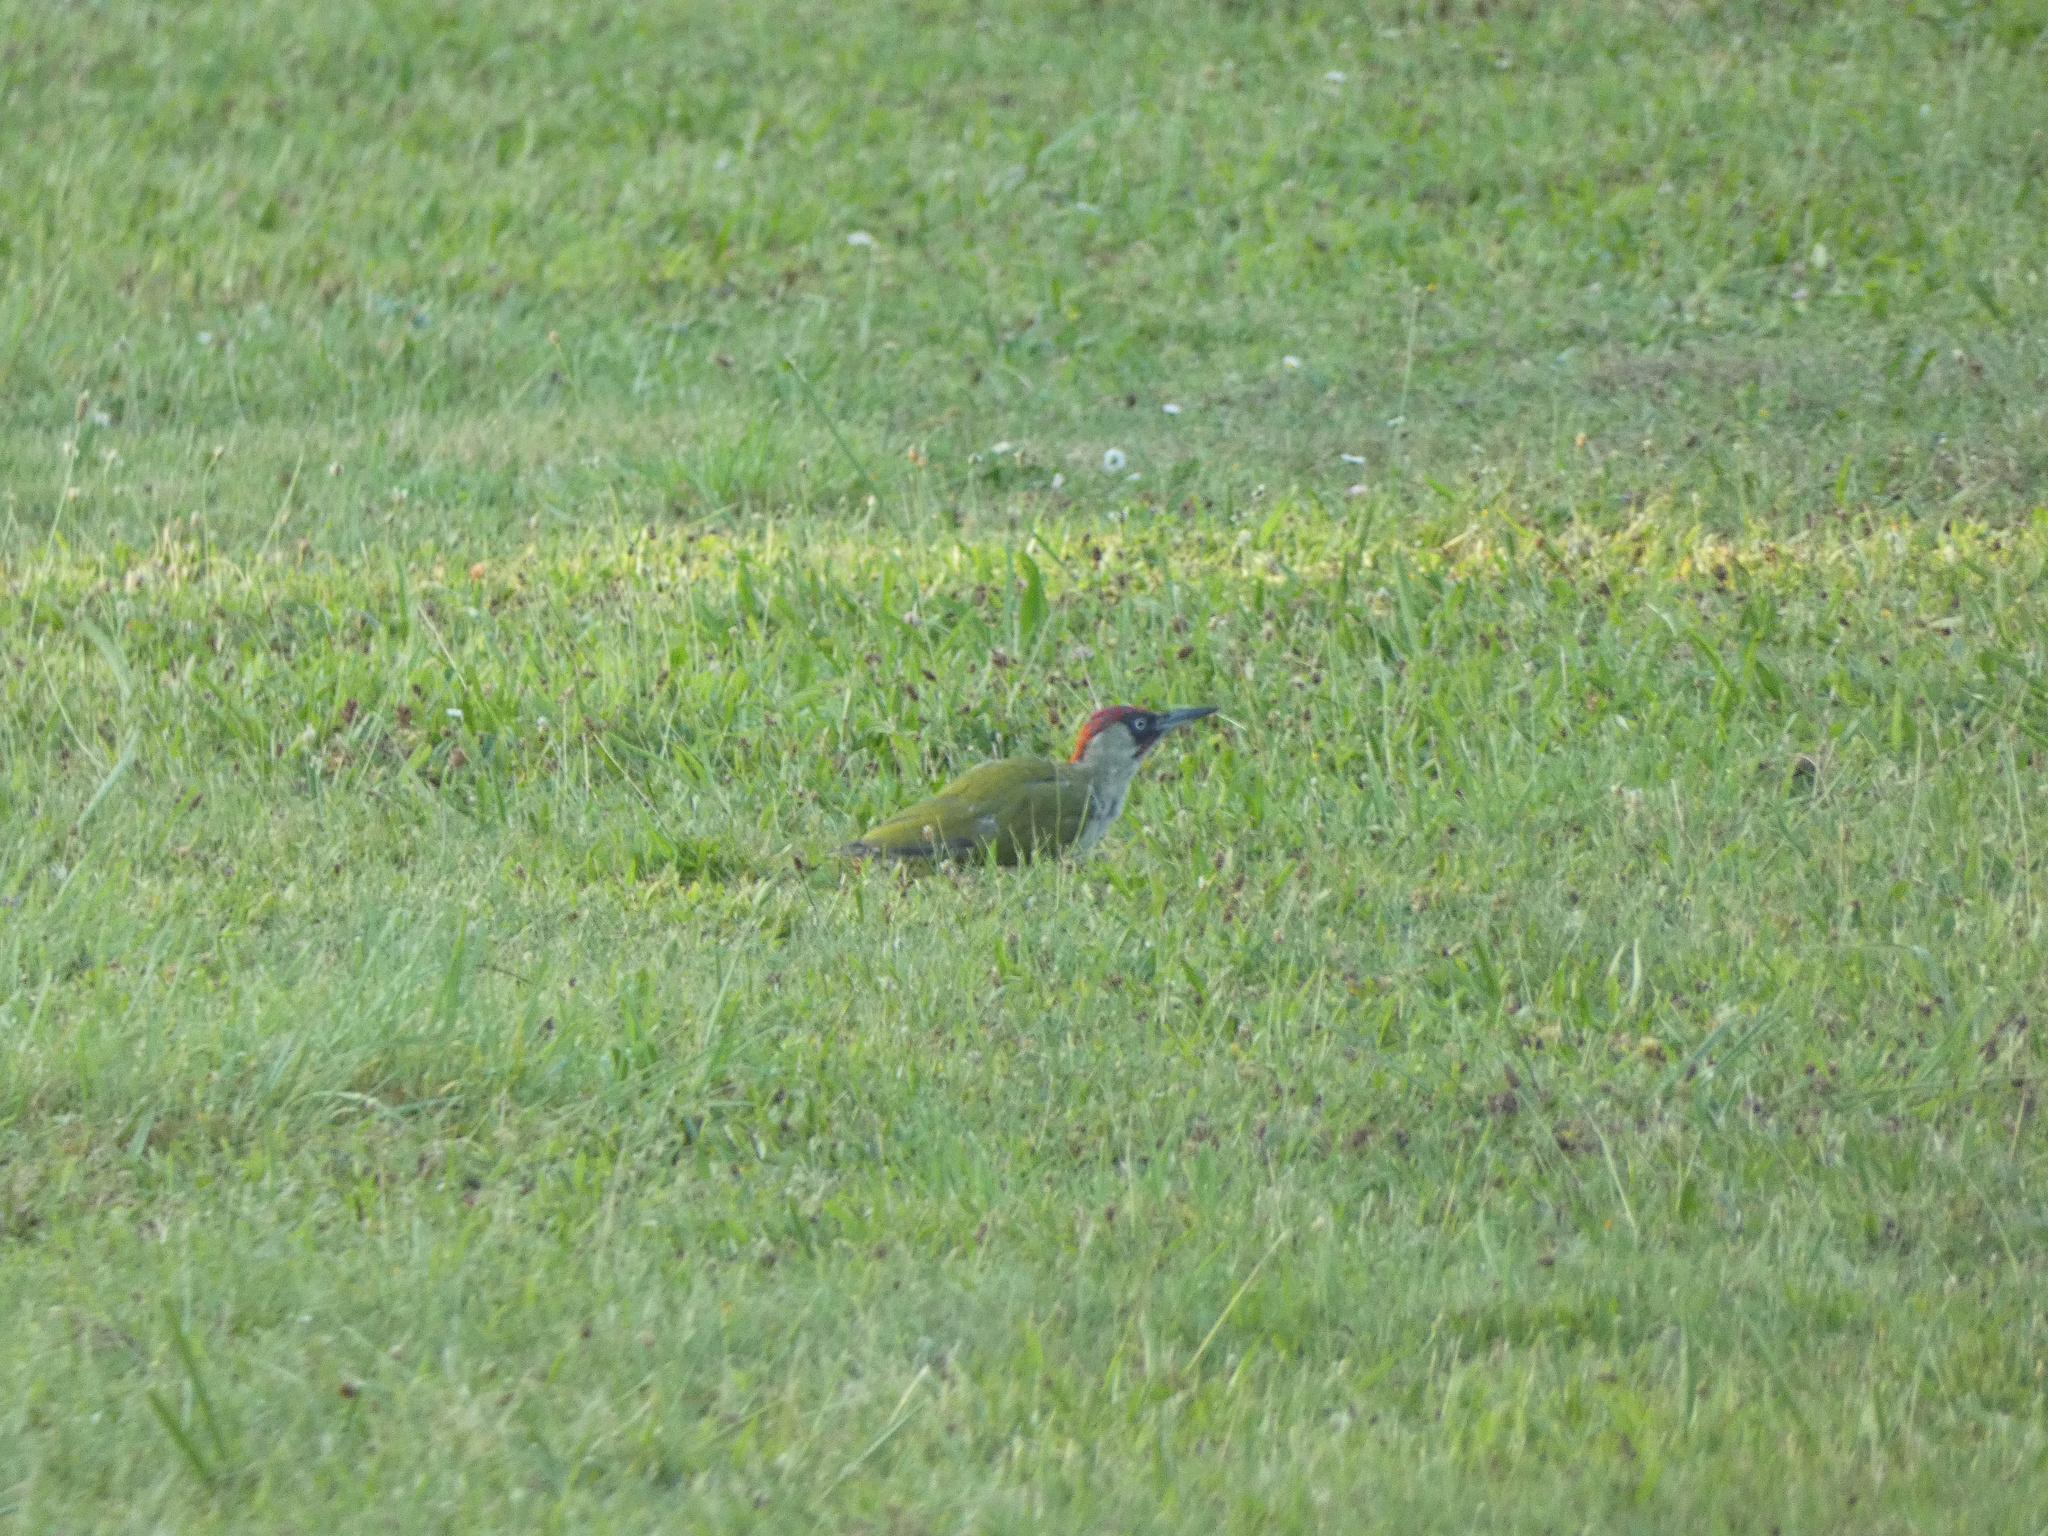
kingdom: Animalia
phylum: Chordata
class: Aves
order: Piciformes
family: Picidae
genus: Picus
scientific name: Picus viridis
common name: European green woodpecker
